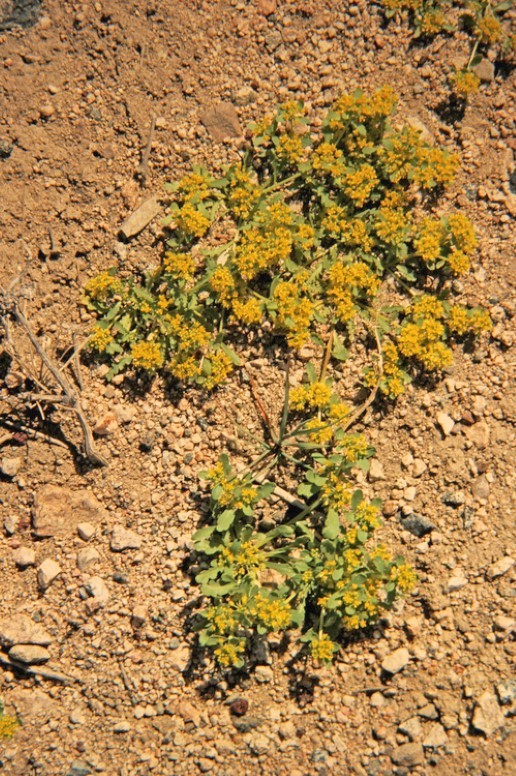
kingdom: Plantae
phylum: Tracheophyta
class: Magnoliopsida
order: Brassicales
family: Brassicaceae
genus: Lepidium
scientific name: Lepidium flavum
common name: Yellow pepperwort
